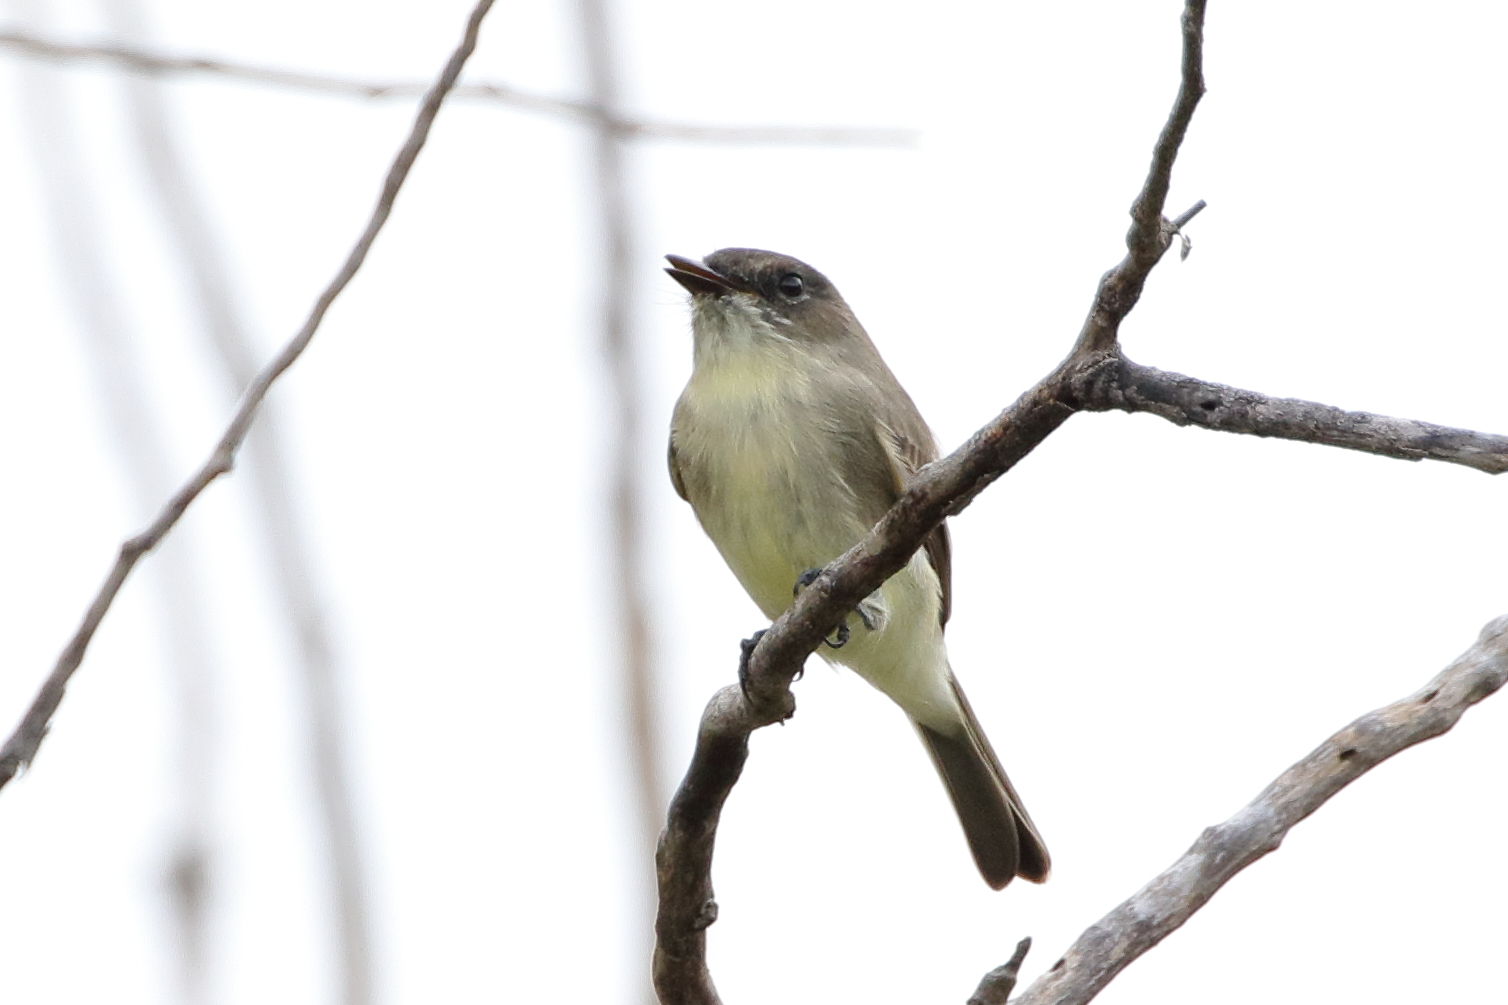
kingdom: Animalia
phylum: Chordata
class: Aves
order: Passeriformes
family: Tyrannidae
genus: Sayornis
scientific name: Sayornis phoebe
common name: Eastern phoebe
